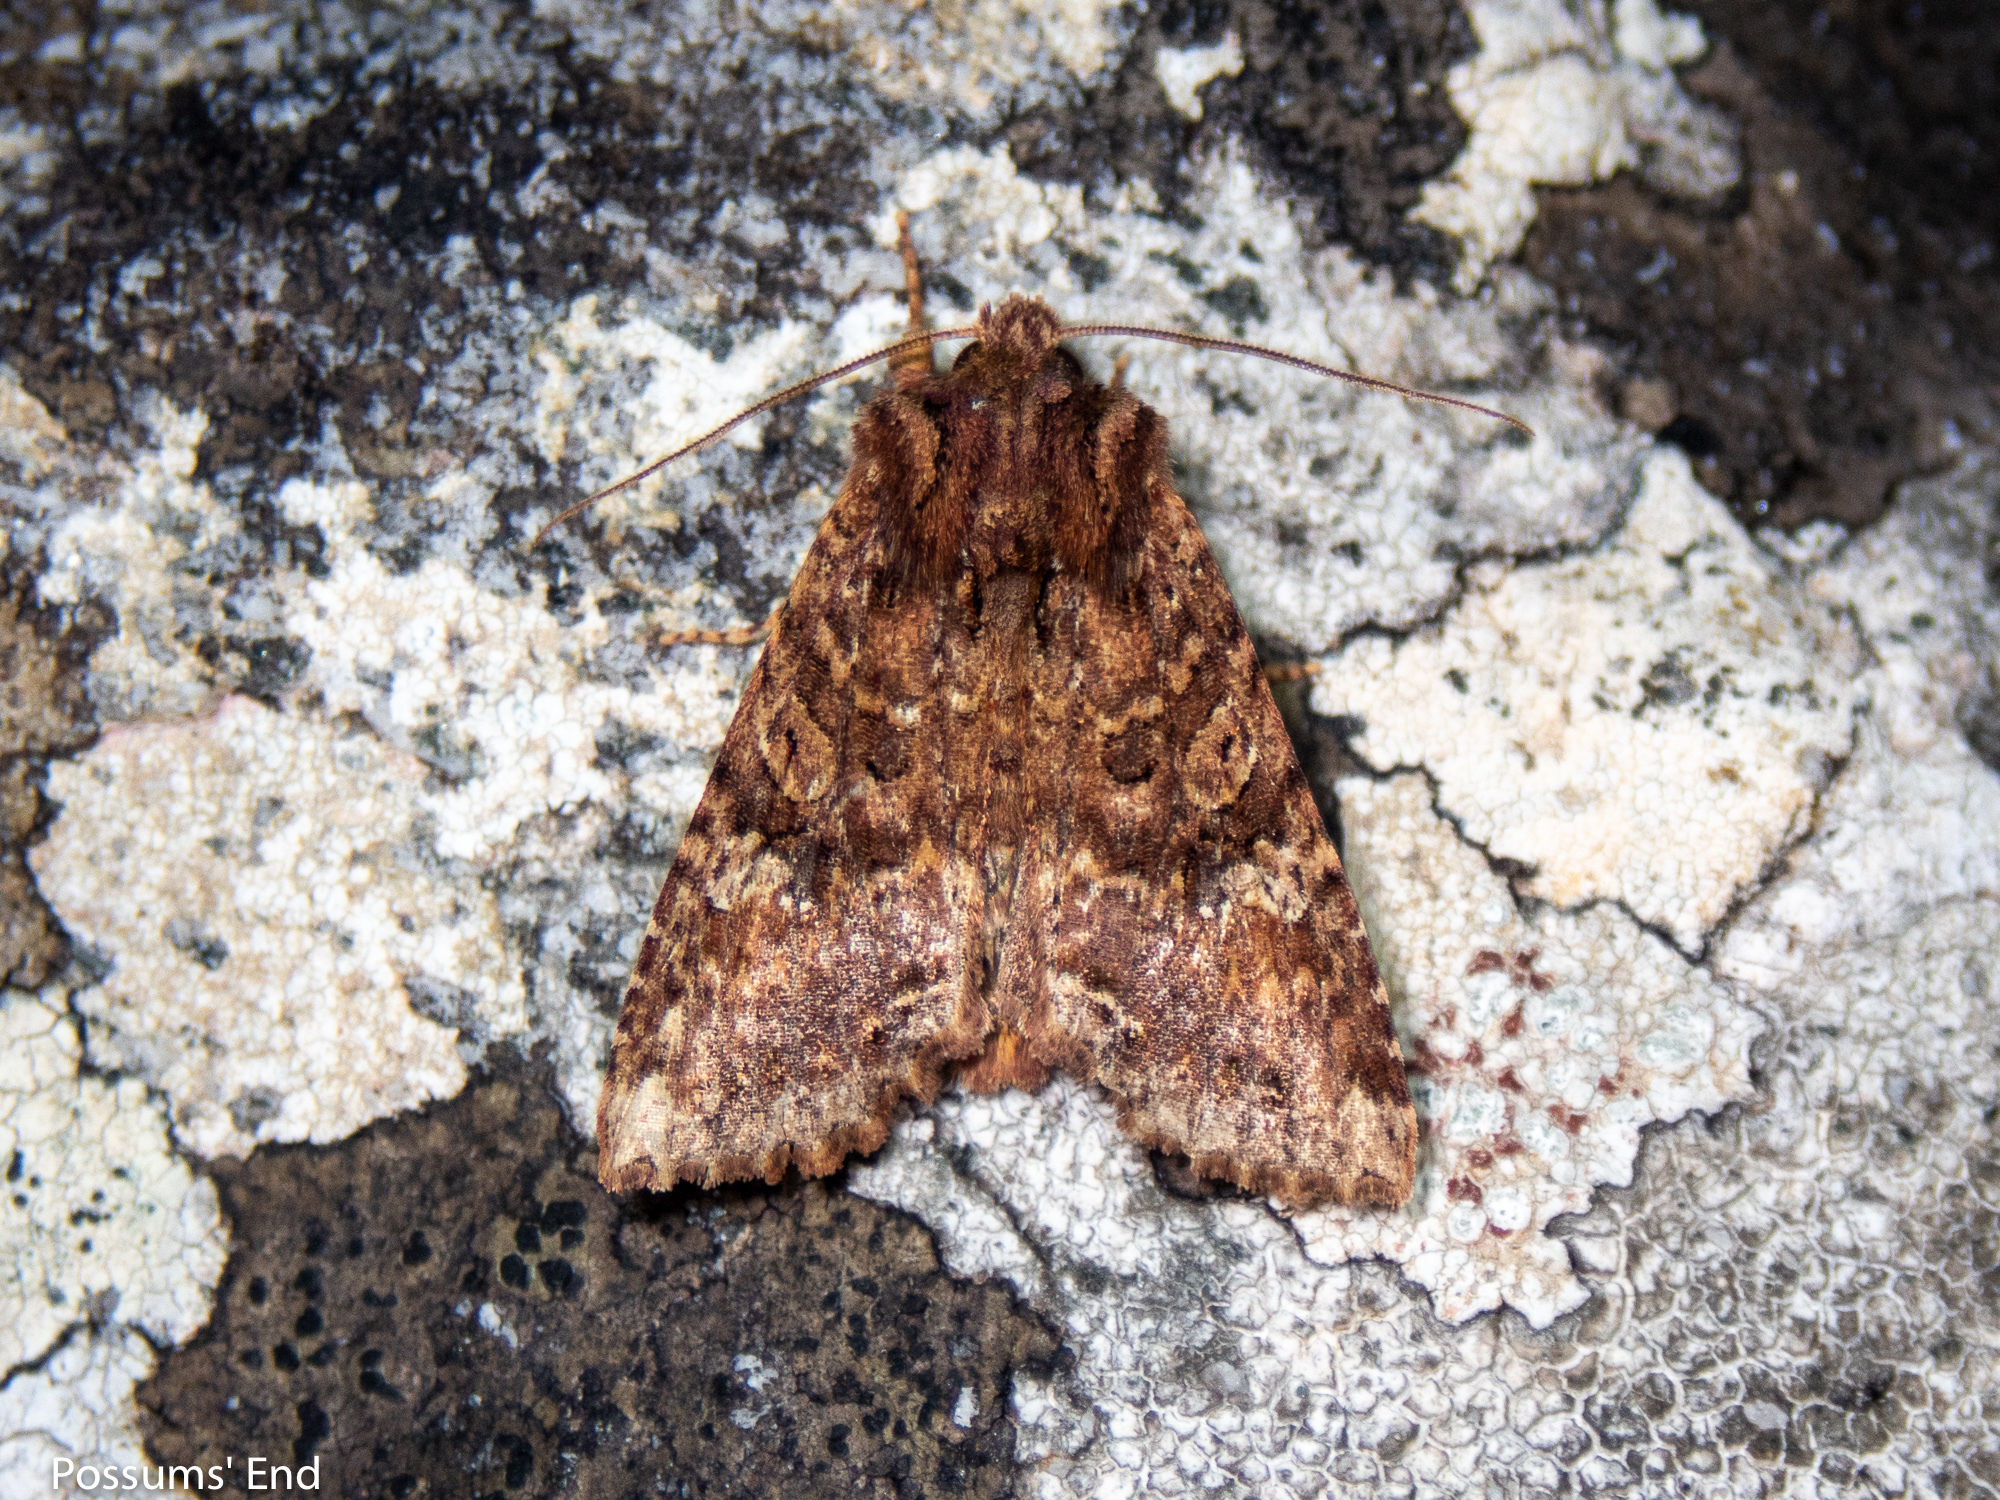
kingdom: Animalia
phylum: Arthropoda
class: Insecta
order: Lepidoptera
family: Noctuidae
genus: Meterana
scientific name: Meterana
